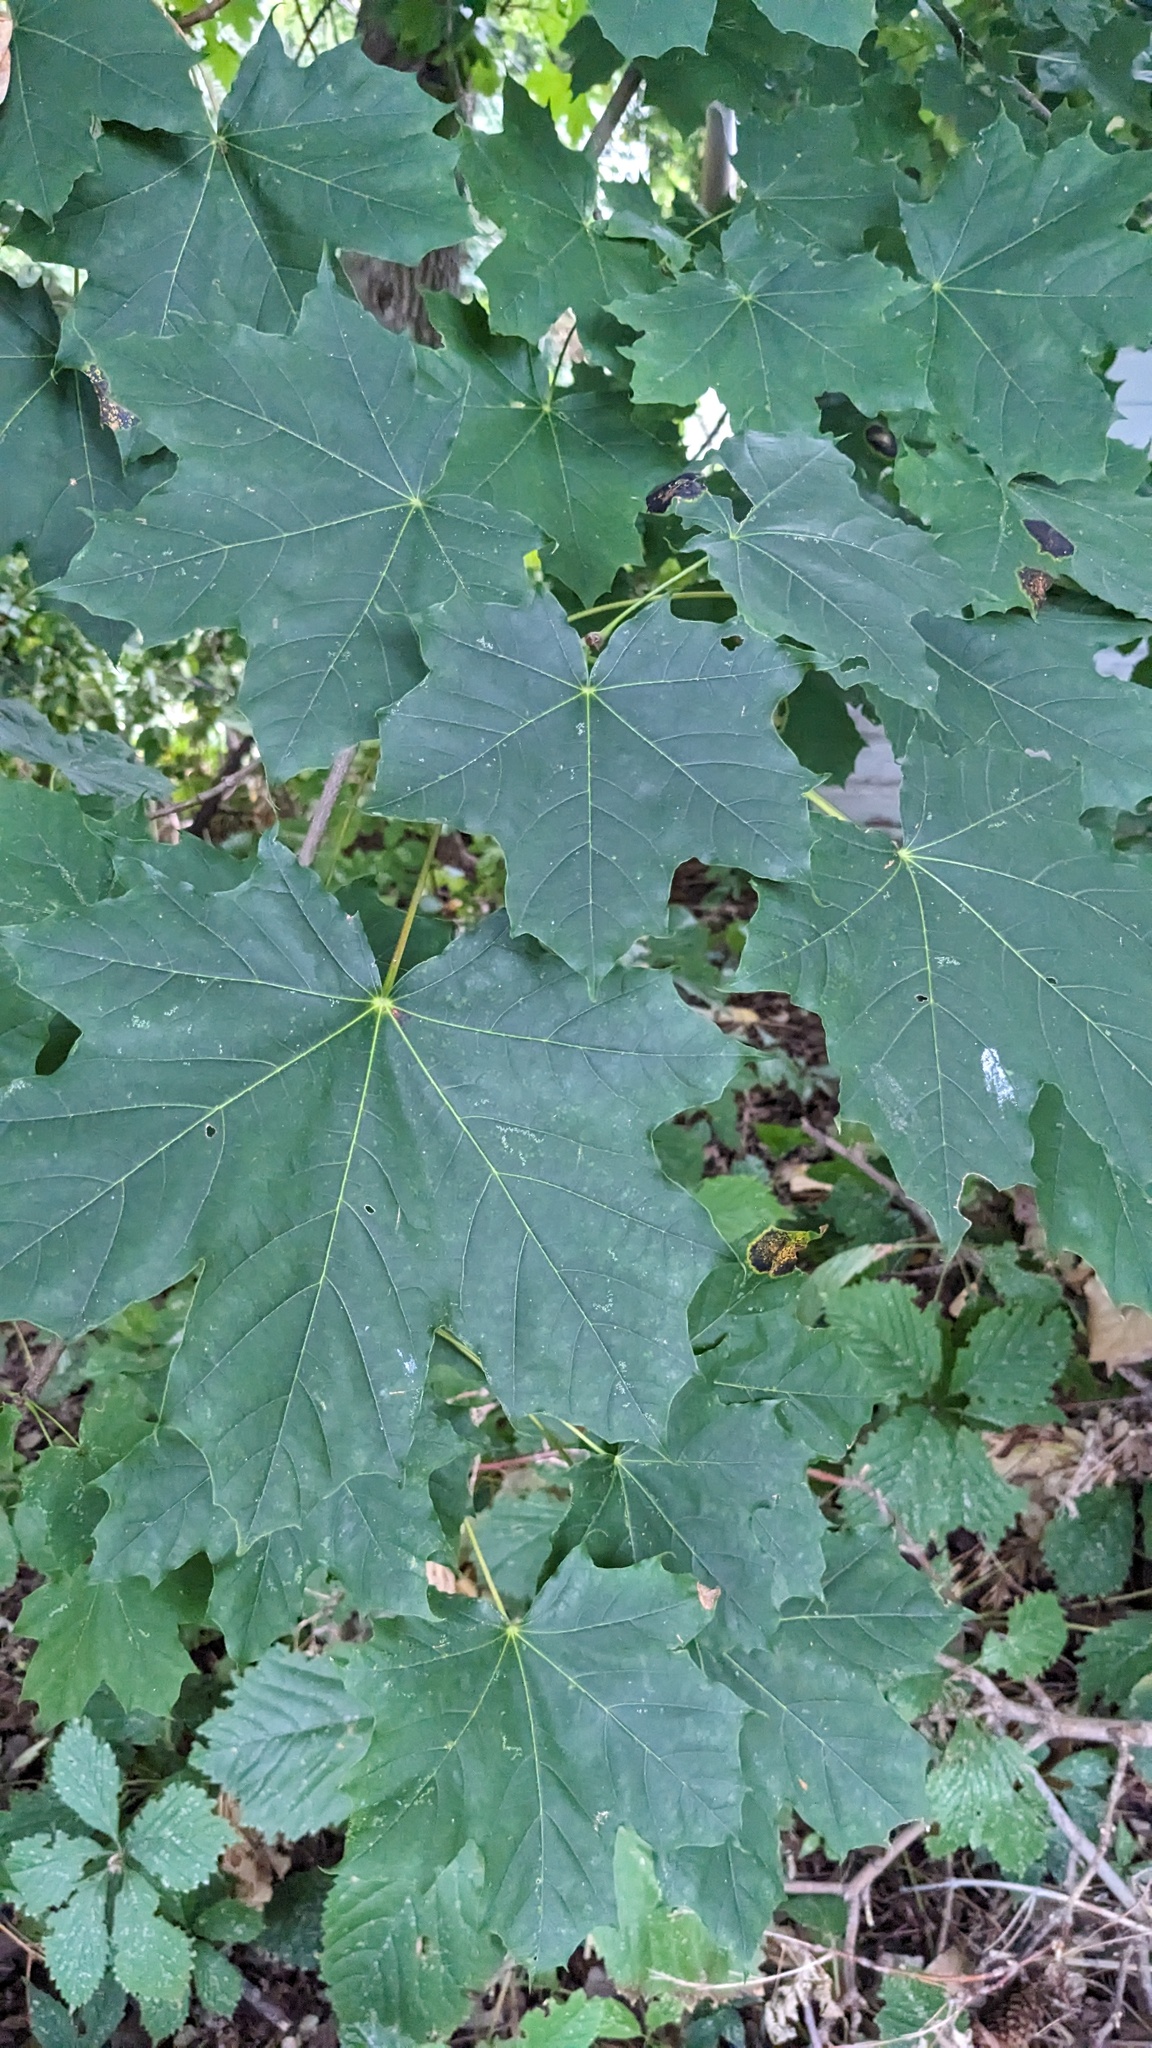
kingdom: Plantae
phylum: Tracheophyta
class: Magnoliopsida
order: Sapindales
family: Sapindaceae
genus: Acer
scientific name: Acer platanoides
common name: Norway maple
